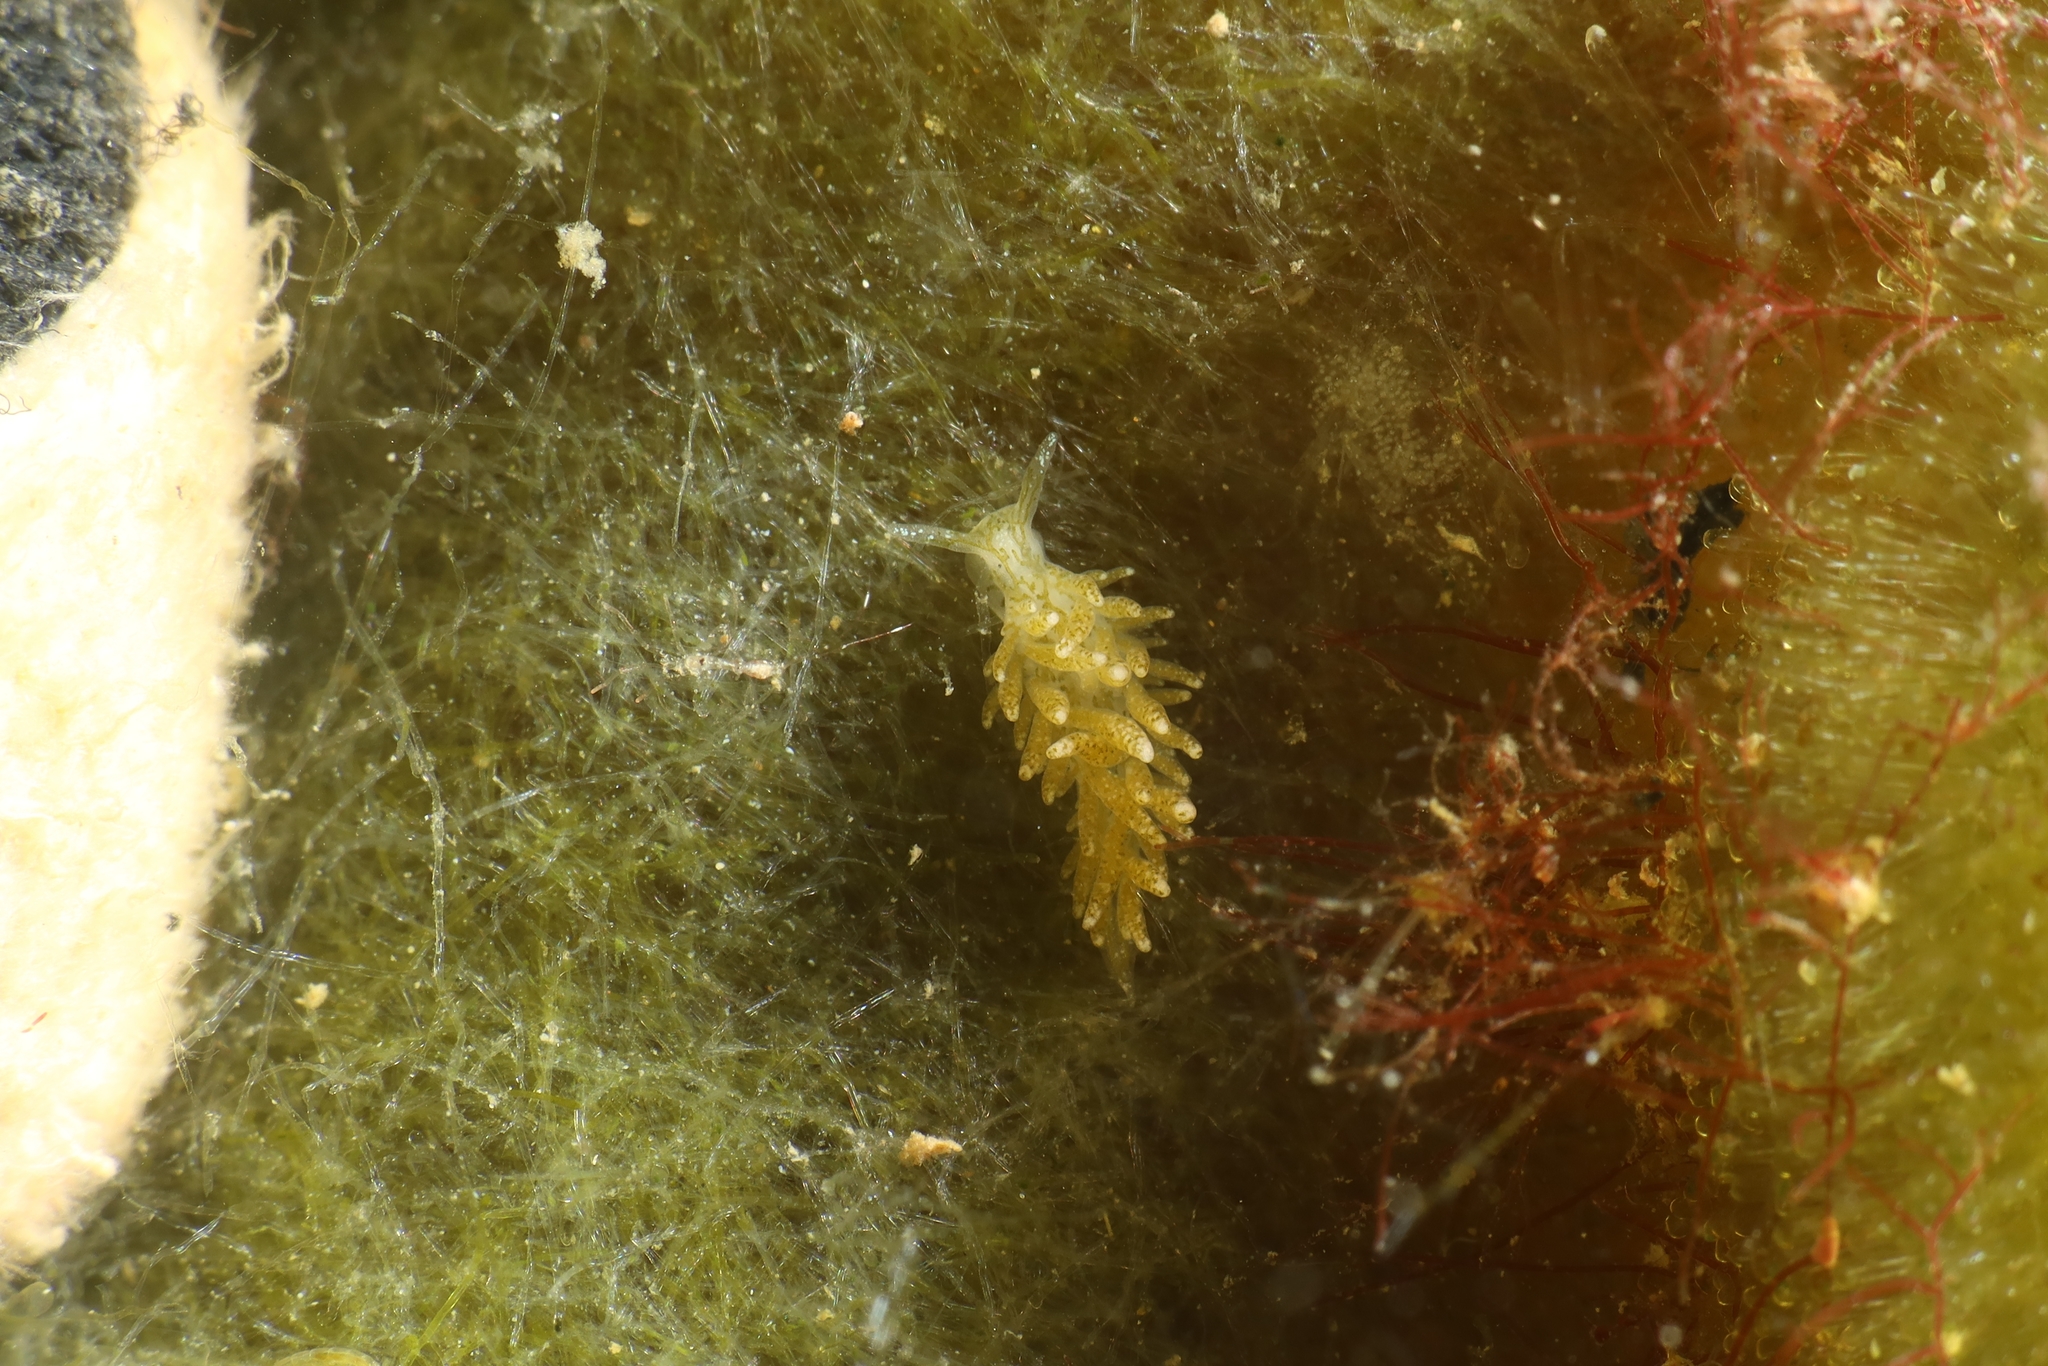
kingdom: Animalia
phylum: Mollusca
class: Gastropoda
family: Limapontiidae
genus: Placida
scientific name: Placida dendritica
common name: Dendritic nudibranch
